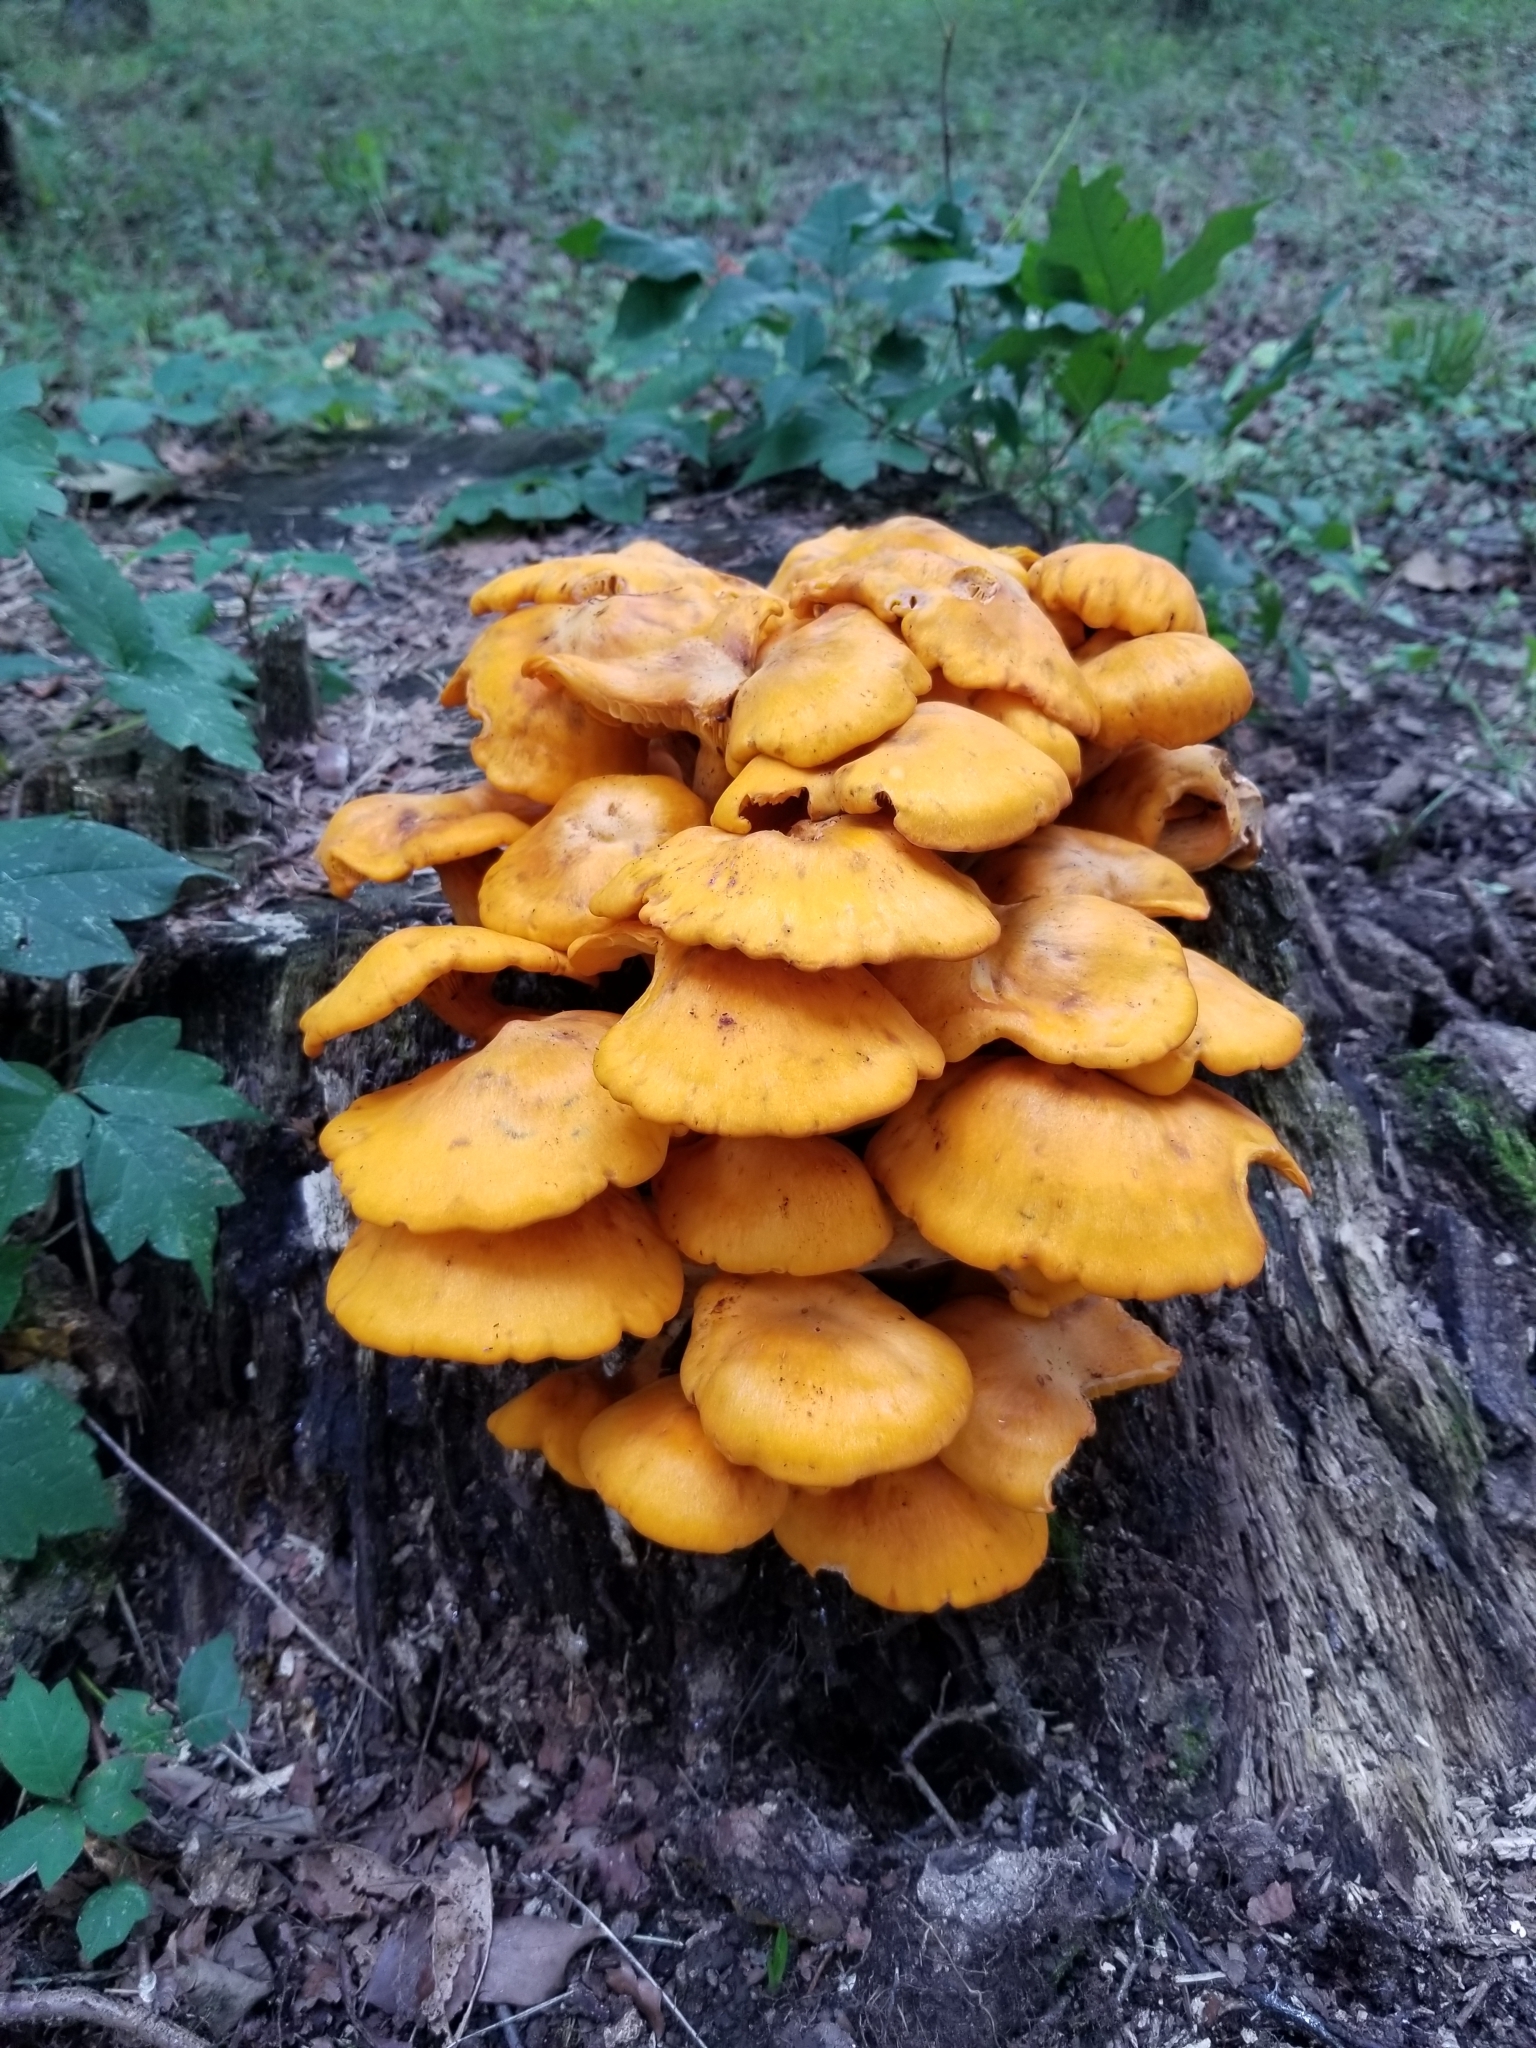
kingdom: Fungi
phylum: Basidiomycota
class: Agaricomycetes
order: Agaricales
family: Omphalotaceae
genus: Omphalotus
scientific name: Omphalotus illudens
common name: Jack o lantern
